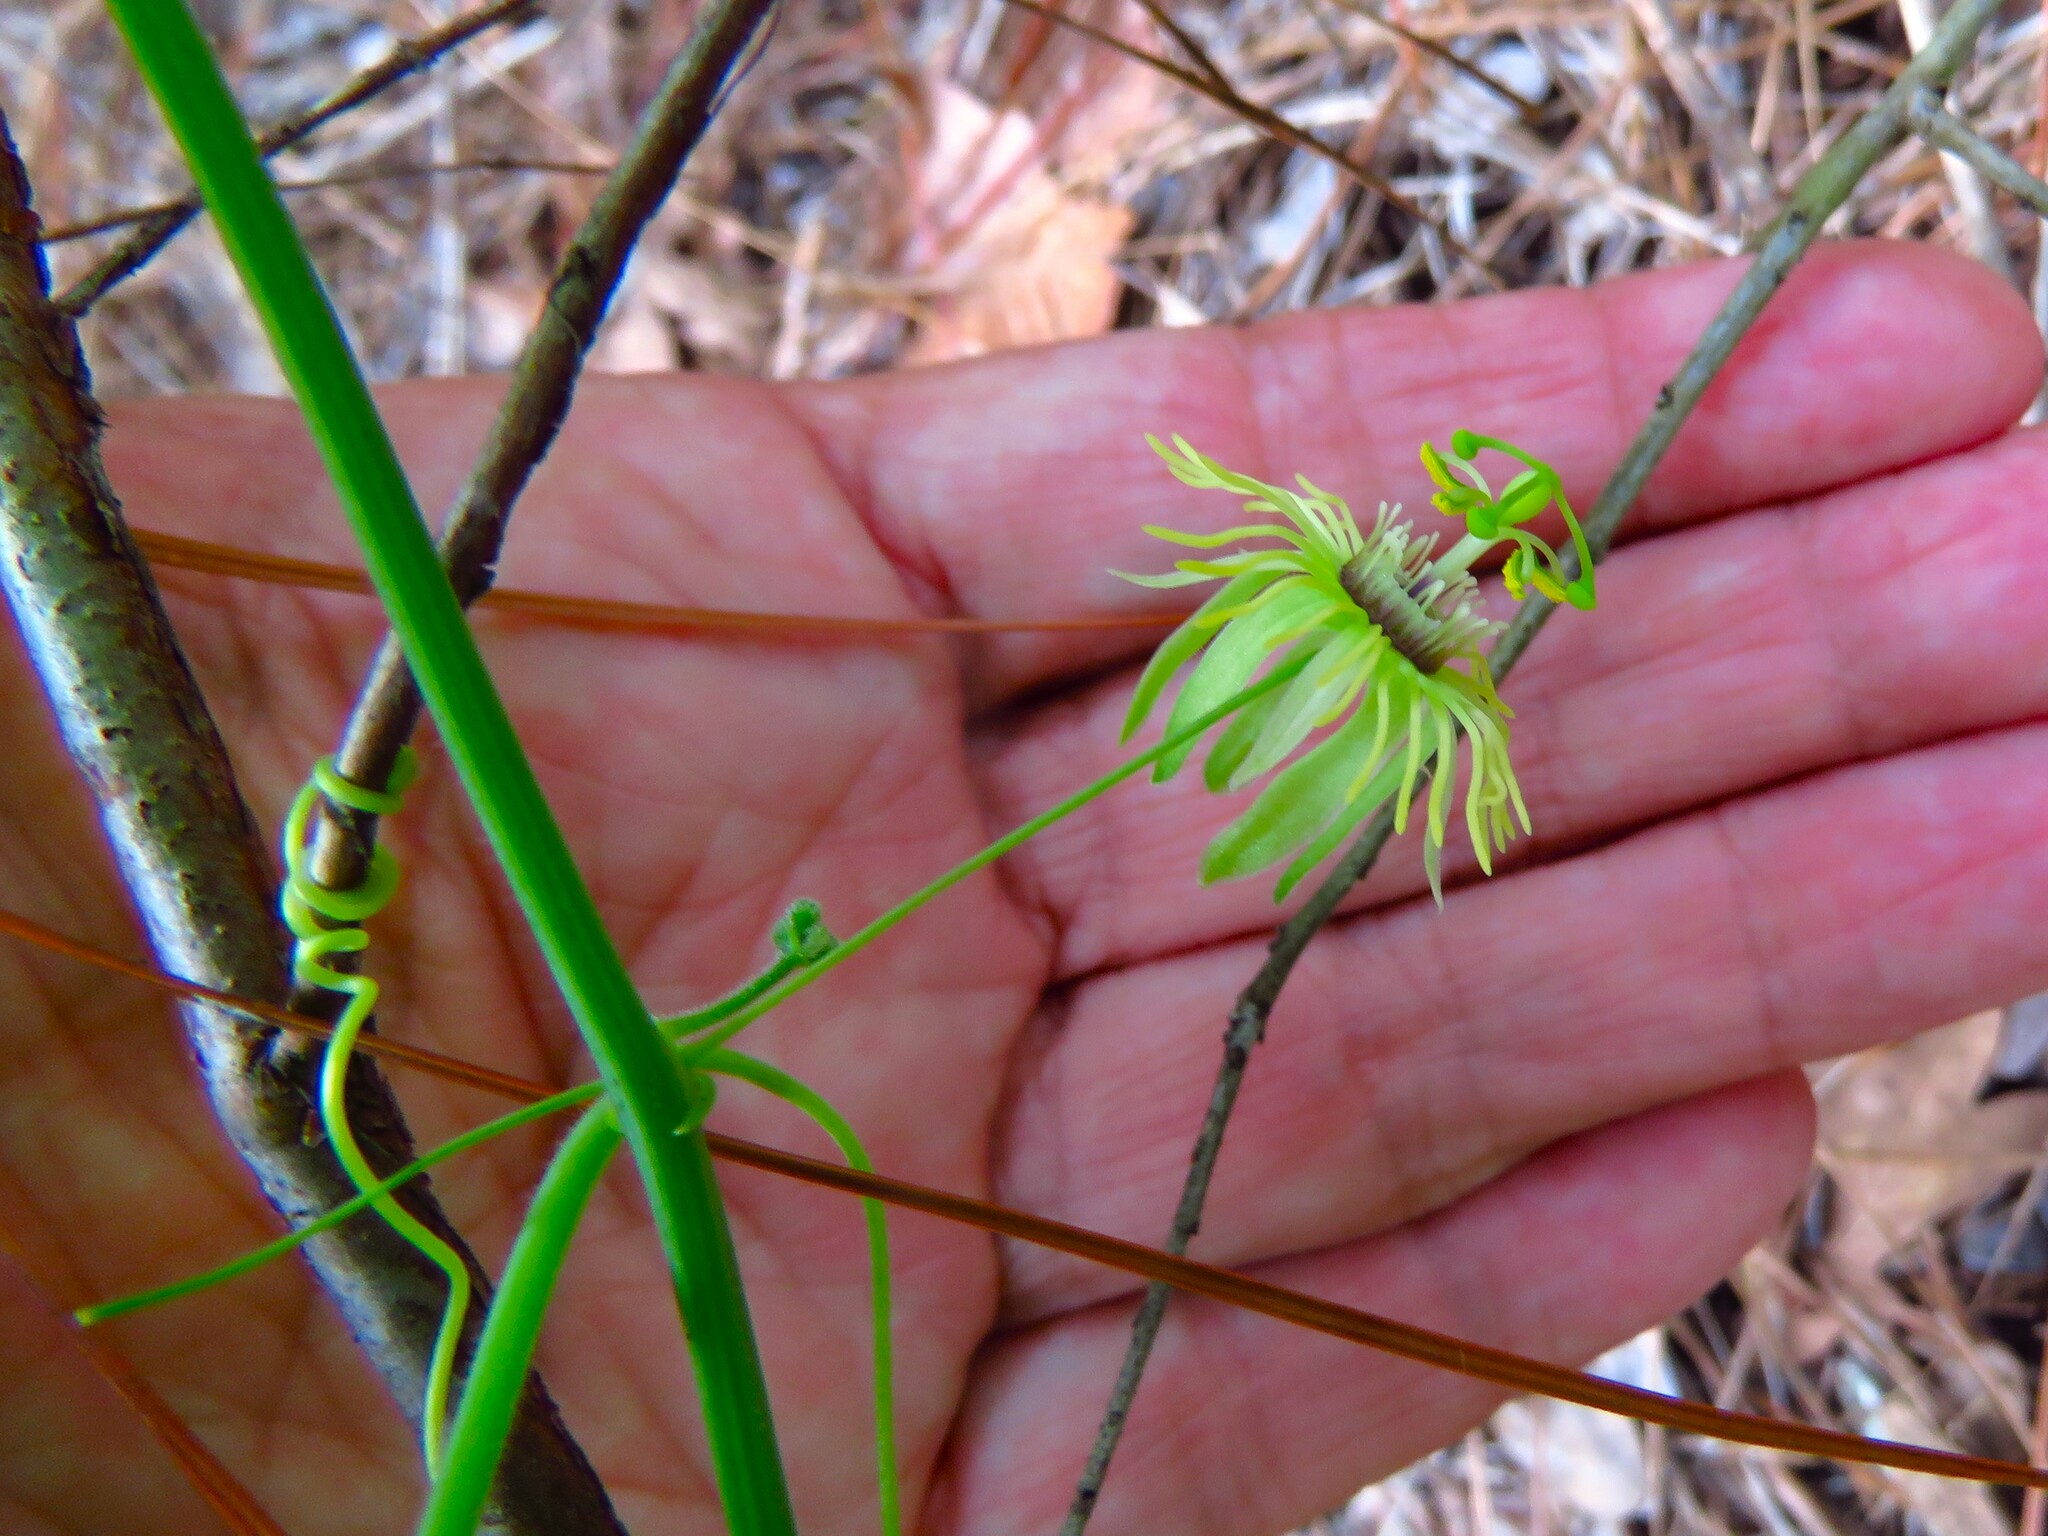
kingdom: Plantae
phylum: Tracheophyta
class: Magnoliopsida
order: Malpighiales
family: Passifloraceae
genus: Passiflora
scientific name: Passiflora lutea
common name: Yellow passionflower
